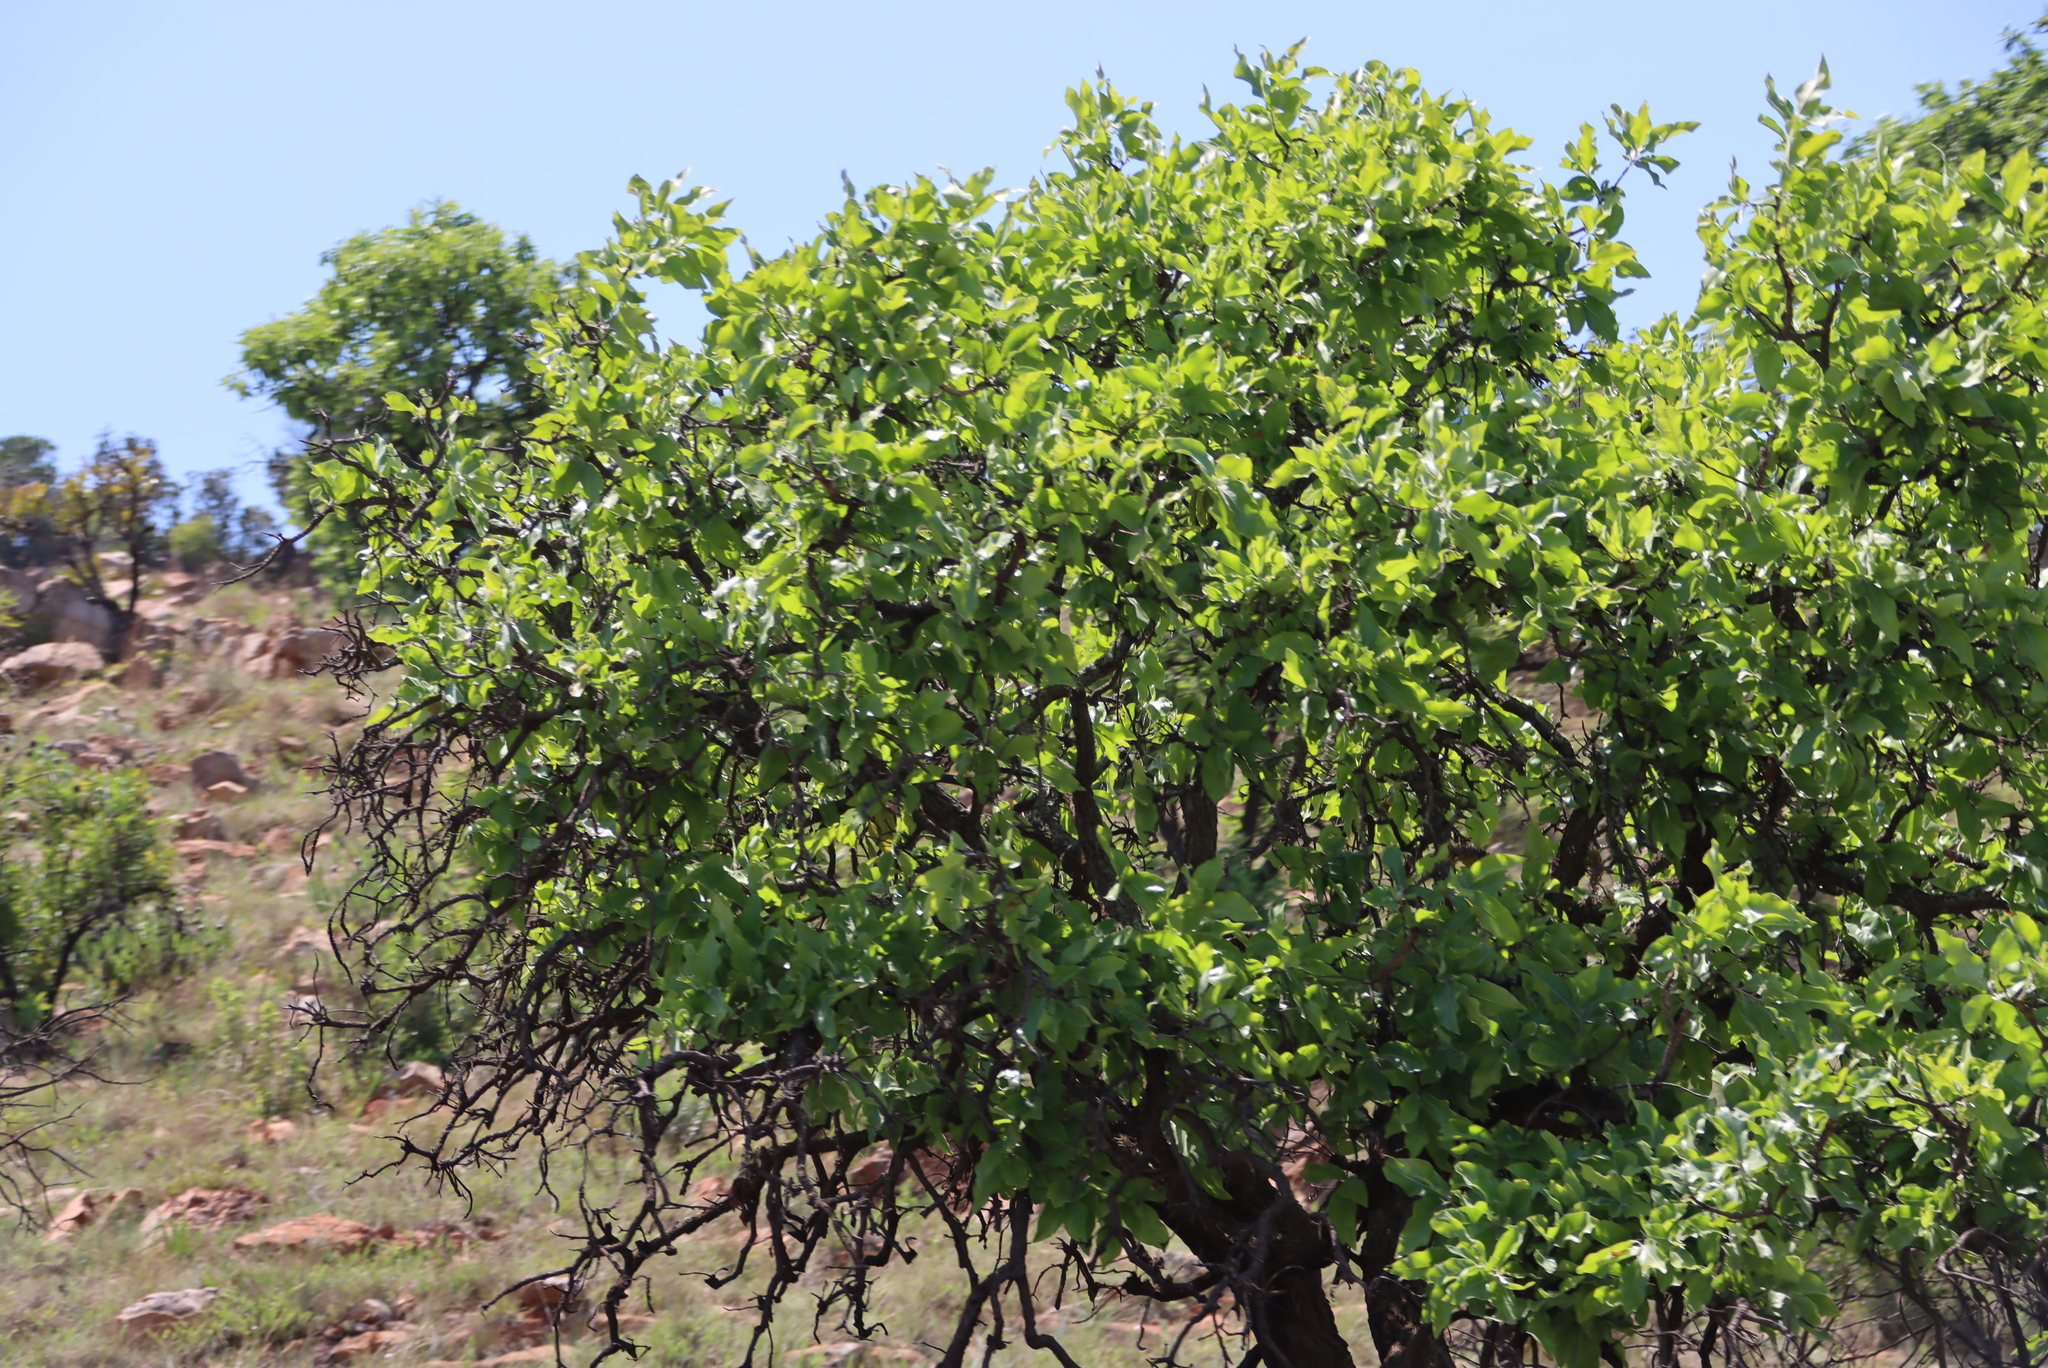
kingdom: Plantae
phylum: Tracheophyta
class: Magnoliopsida
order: Proteales
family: Proteaceae
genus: Faurea
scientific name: Faurea rochetiana
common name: Broad-leaved beech
